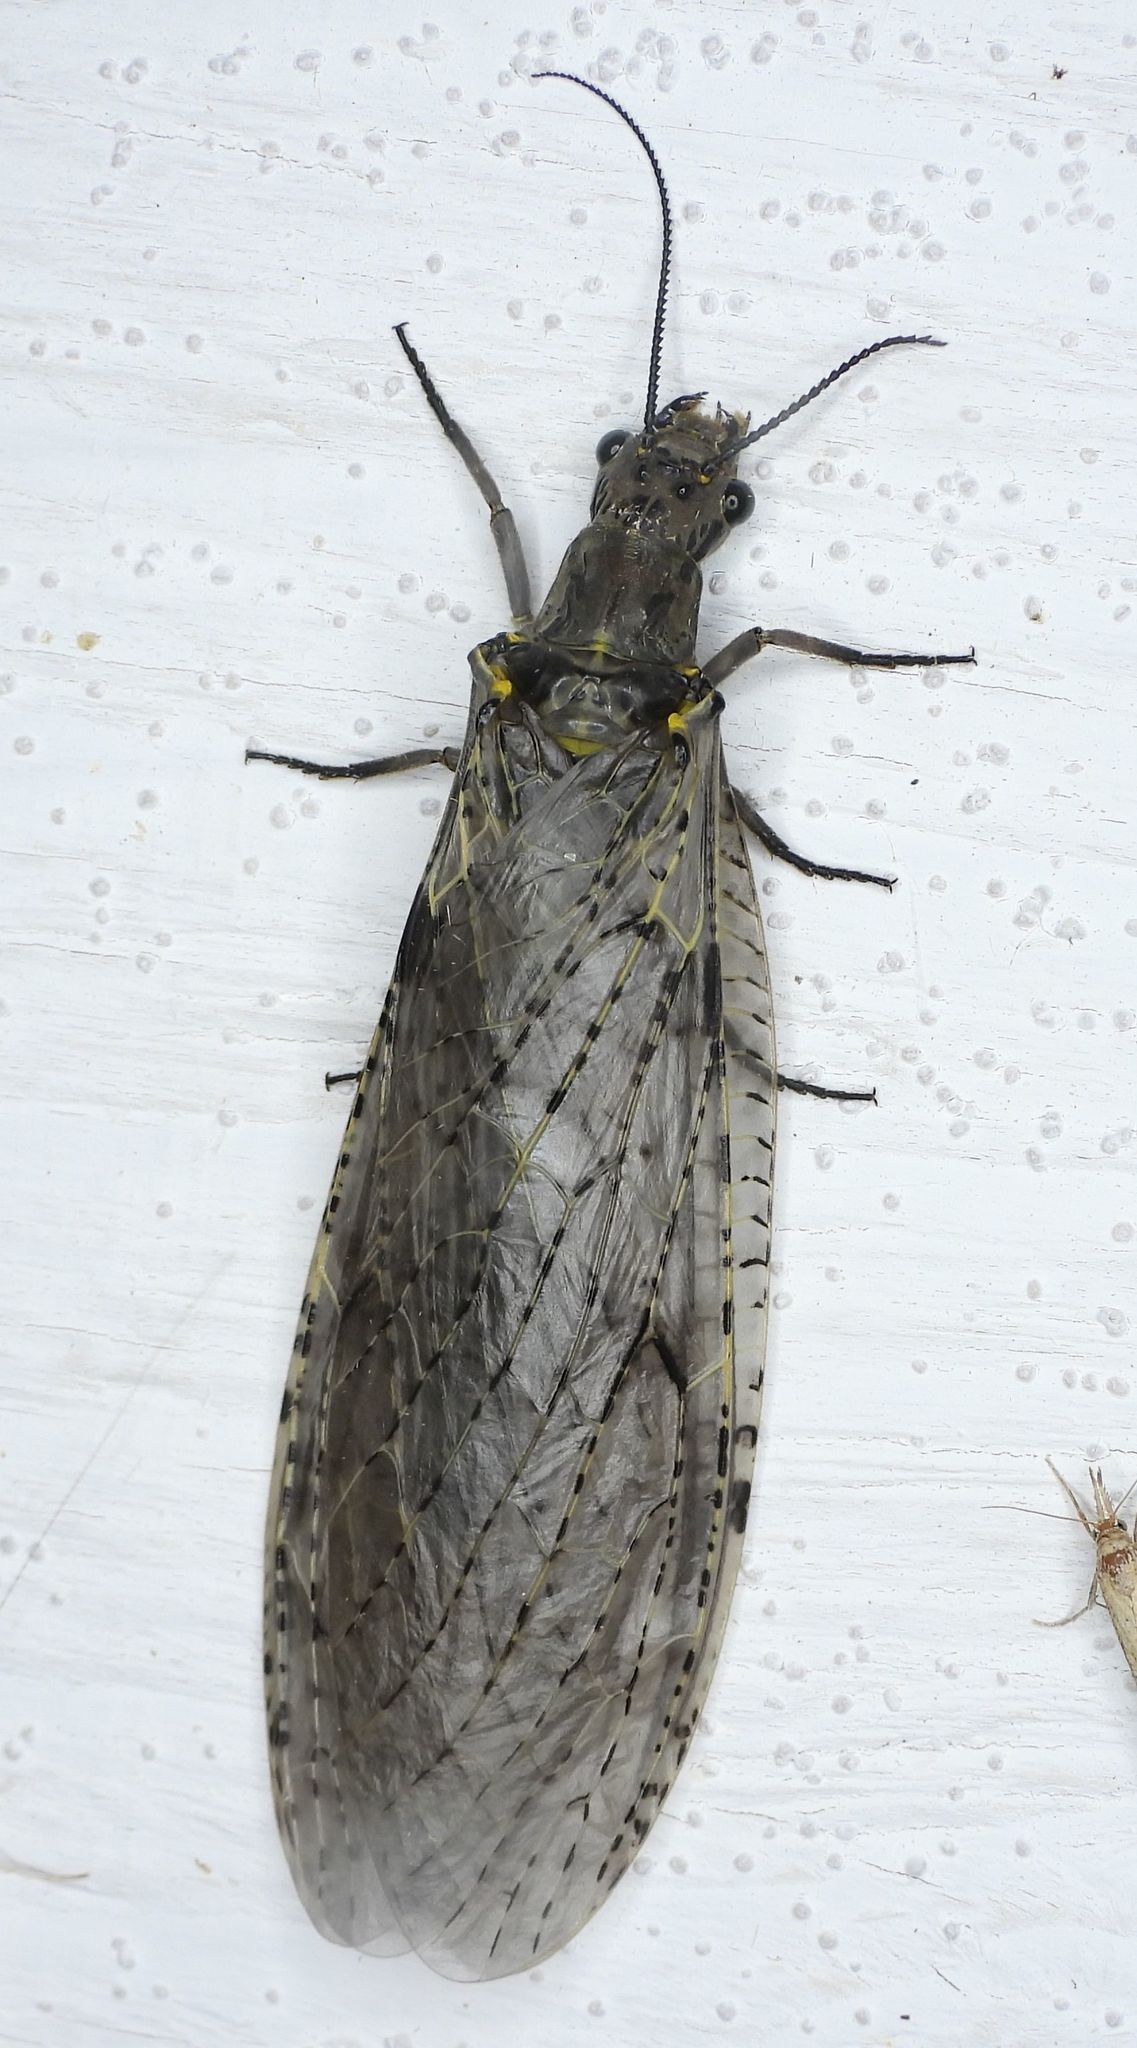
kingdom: Animalia
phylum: Arthropoda
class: Insecta
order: Megaloptera
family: Corydalidae
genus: Chauliodes
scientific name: Chauliodes rastricornis
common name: Spring fishfly
